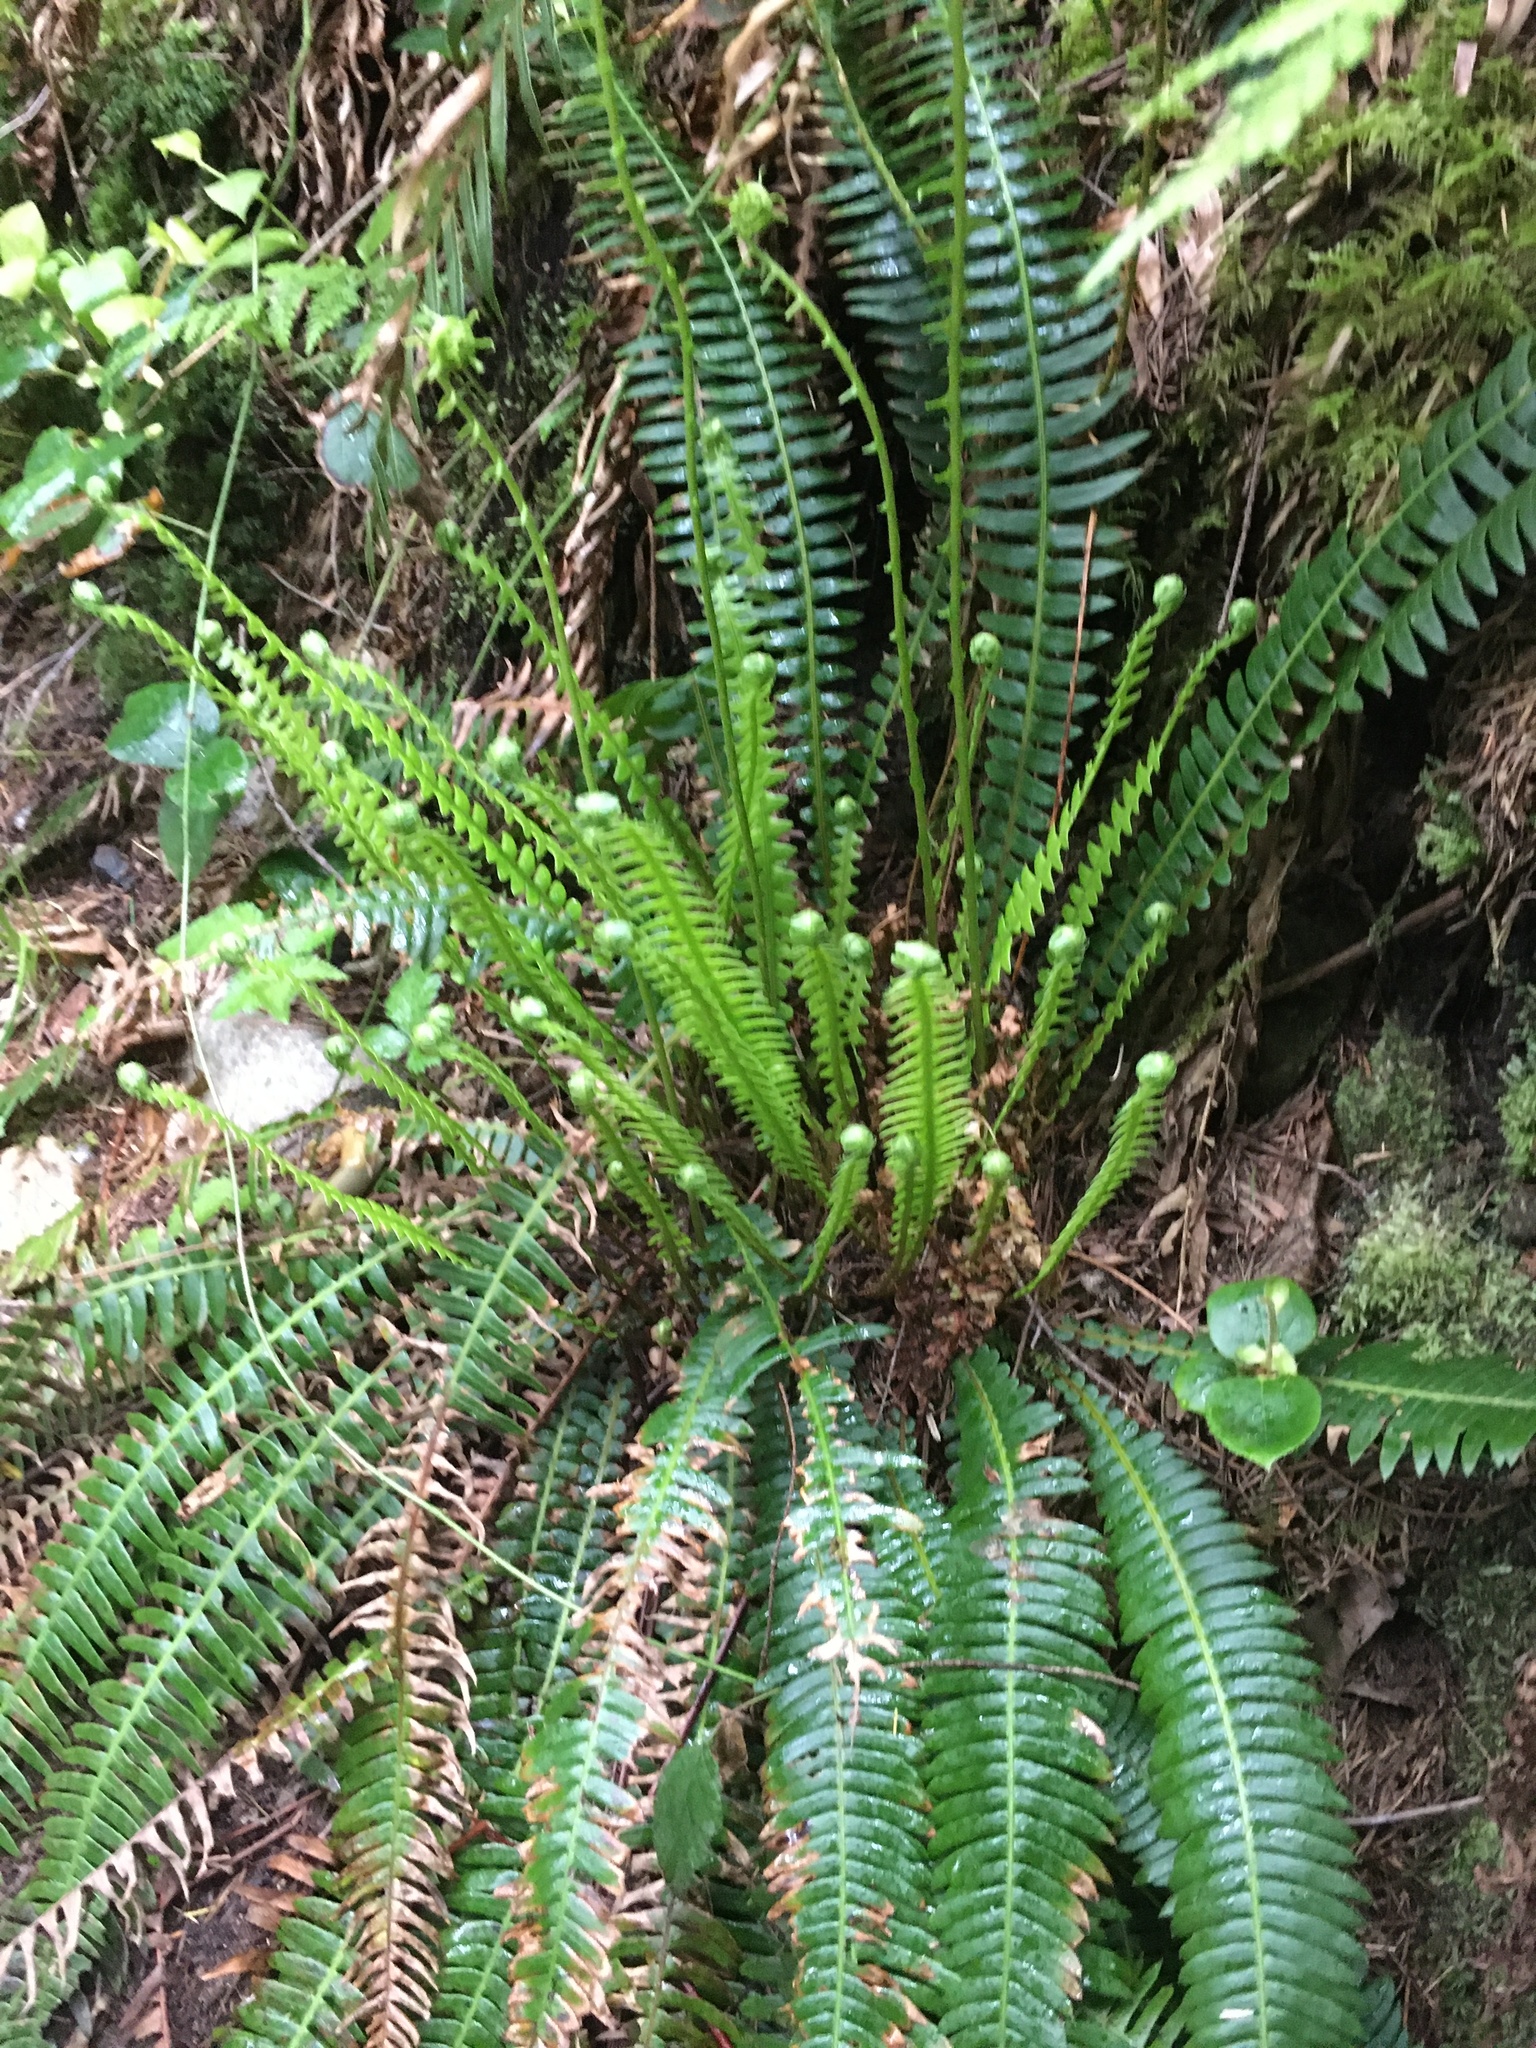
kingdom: Plantae
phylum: Tracheophyta
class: Polypodiopsida
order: Polypodiales
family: Blechnaceae
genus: Struthiopteris
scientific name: Struthiopteris spicant
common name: Deer fern
